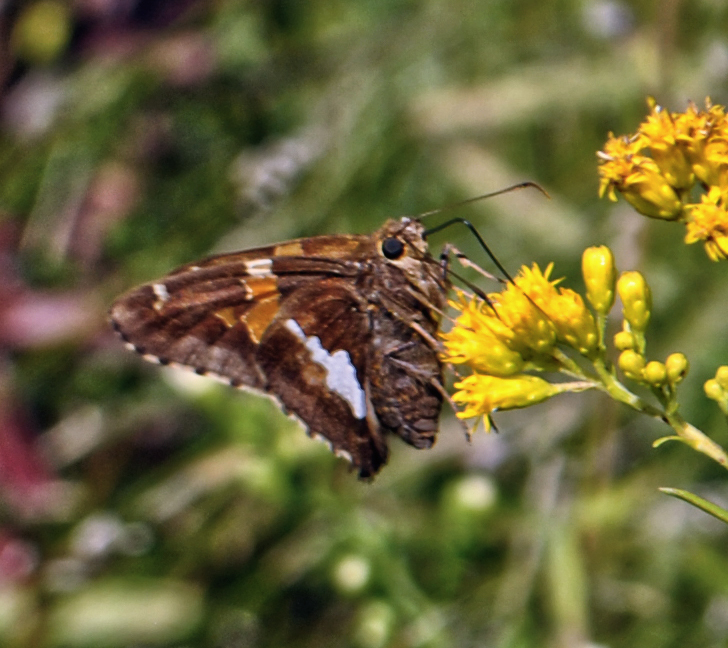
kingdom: Animalia
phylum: Arthropoda
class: Insecta
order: Lepidoptera
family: Hesperiidae
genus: Epargyreus
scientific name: Epargyreus clarus
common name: Silver-spotted skipper
